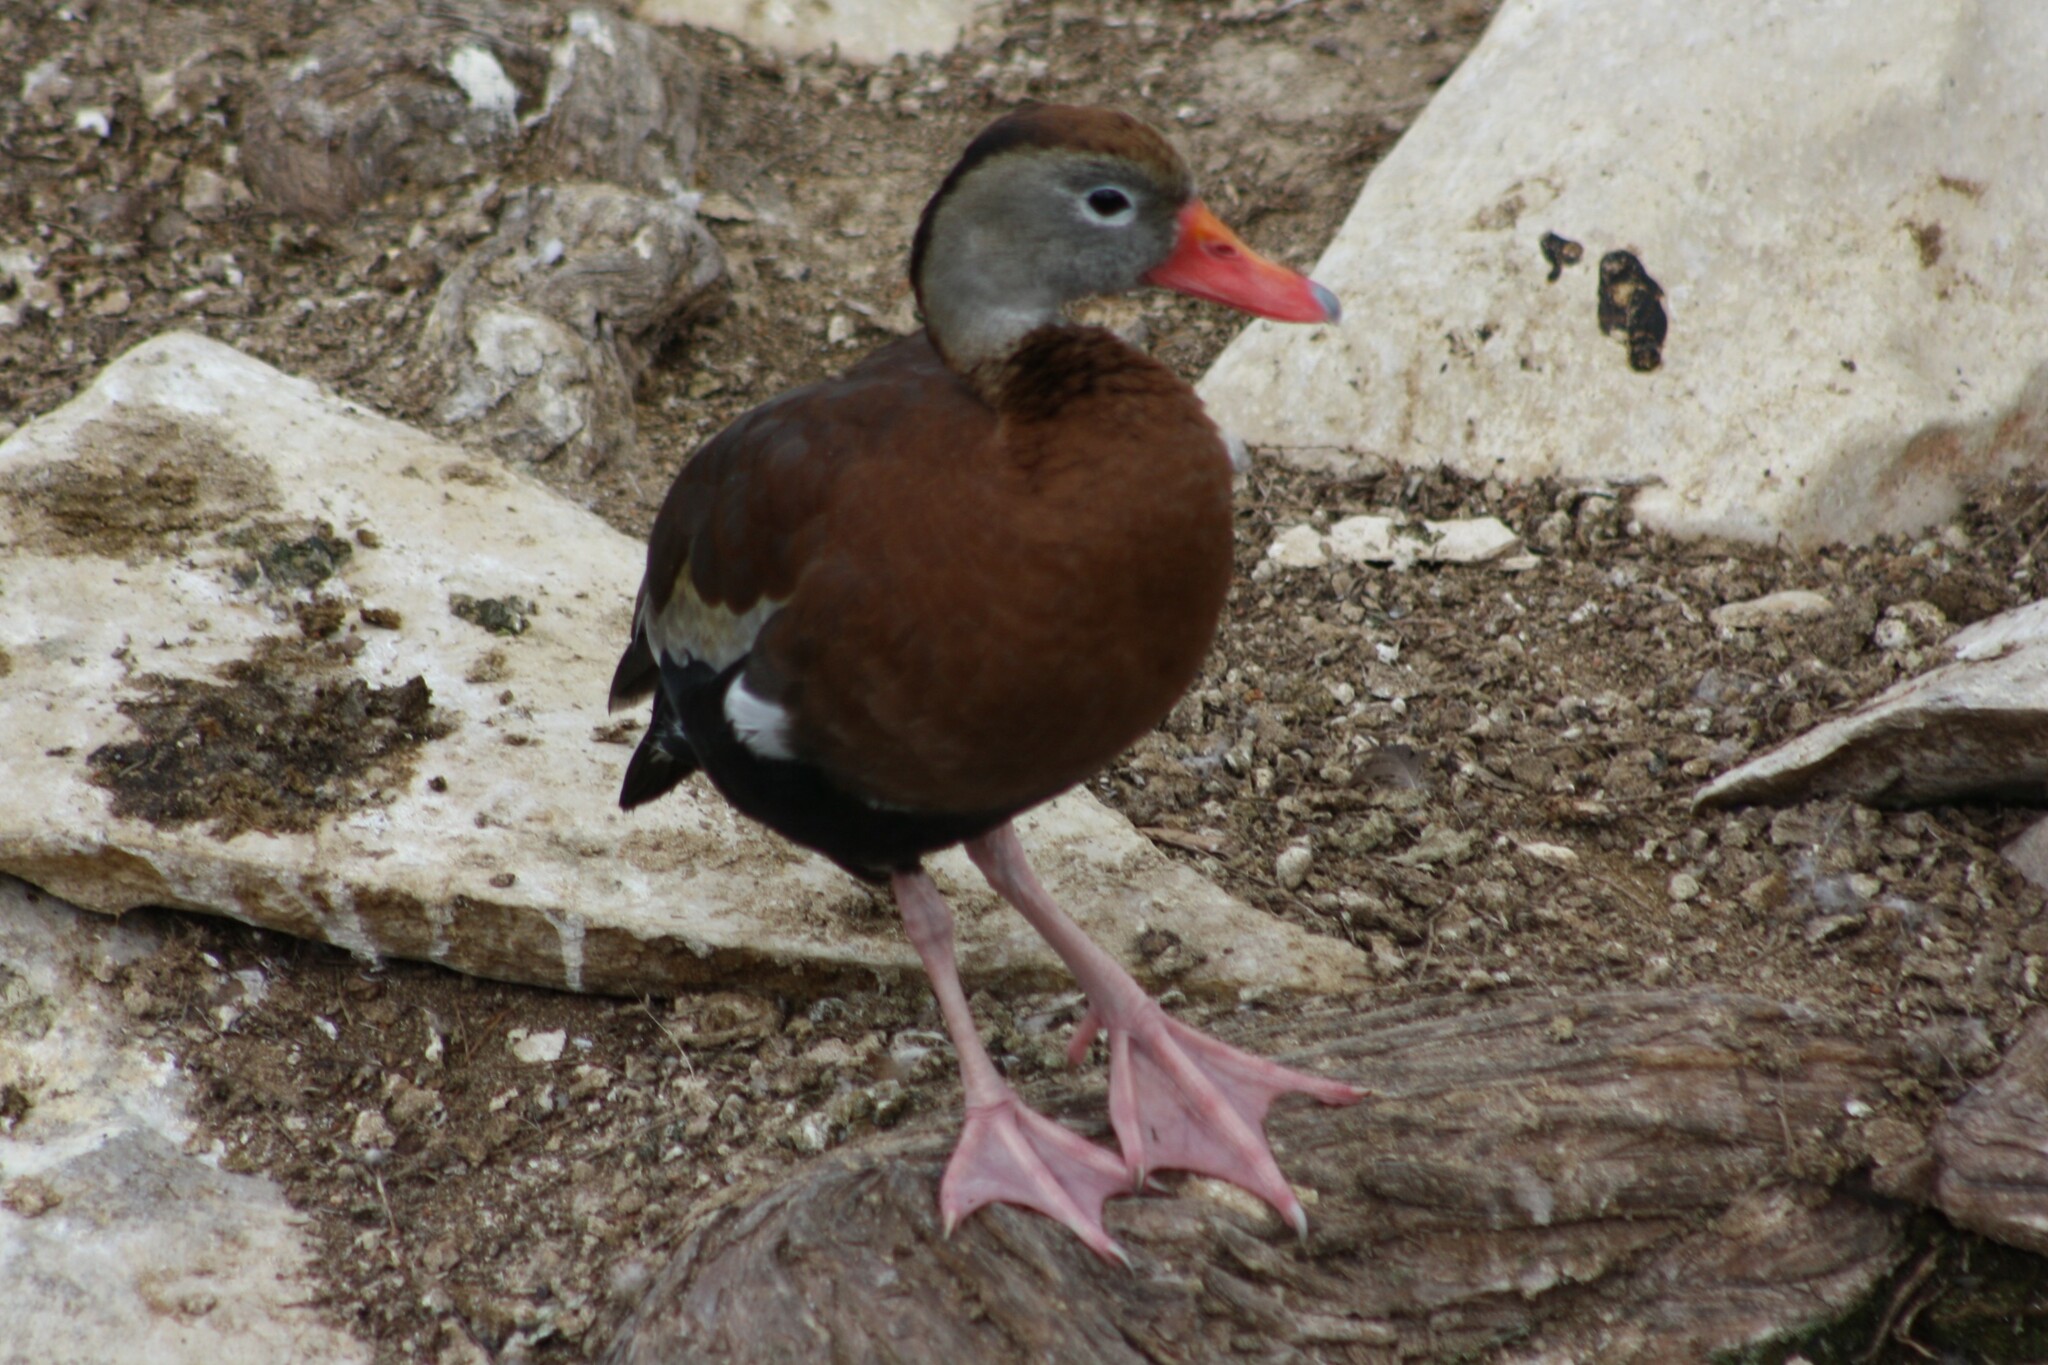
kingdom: Animalia
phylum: Chordata
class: Aves
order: Anseriformes
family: Anatidae
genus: Dendrocygna
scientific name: Dendrocygna autumnalis
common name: Black-bellied whistling duck
